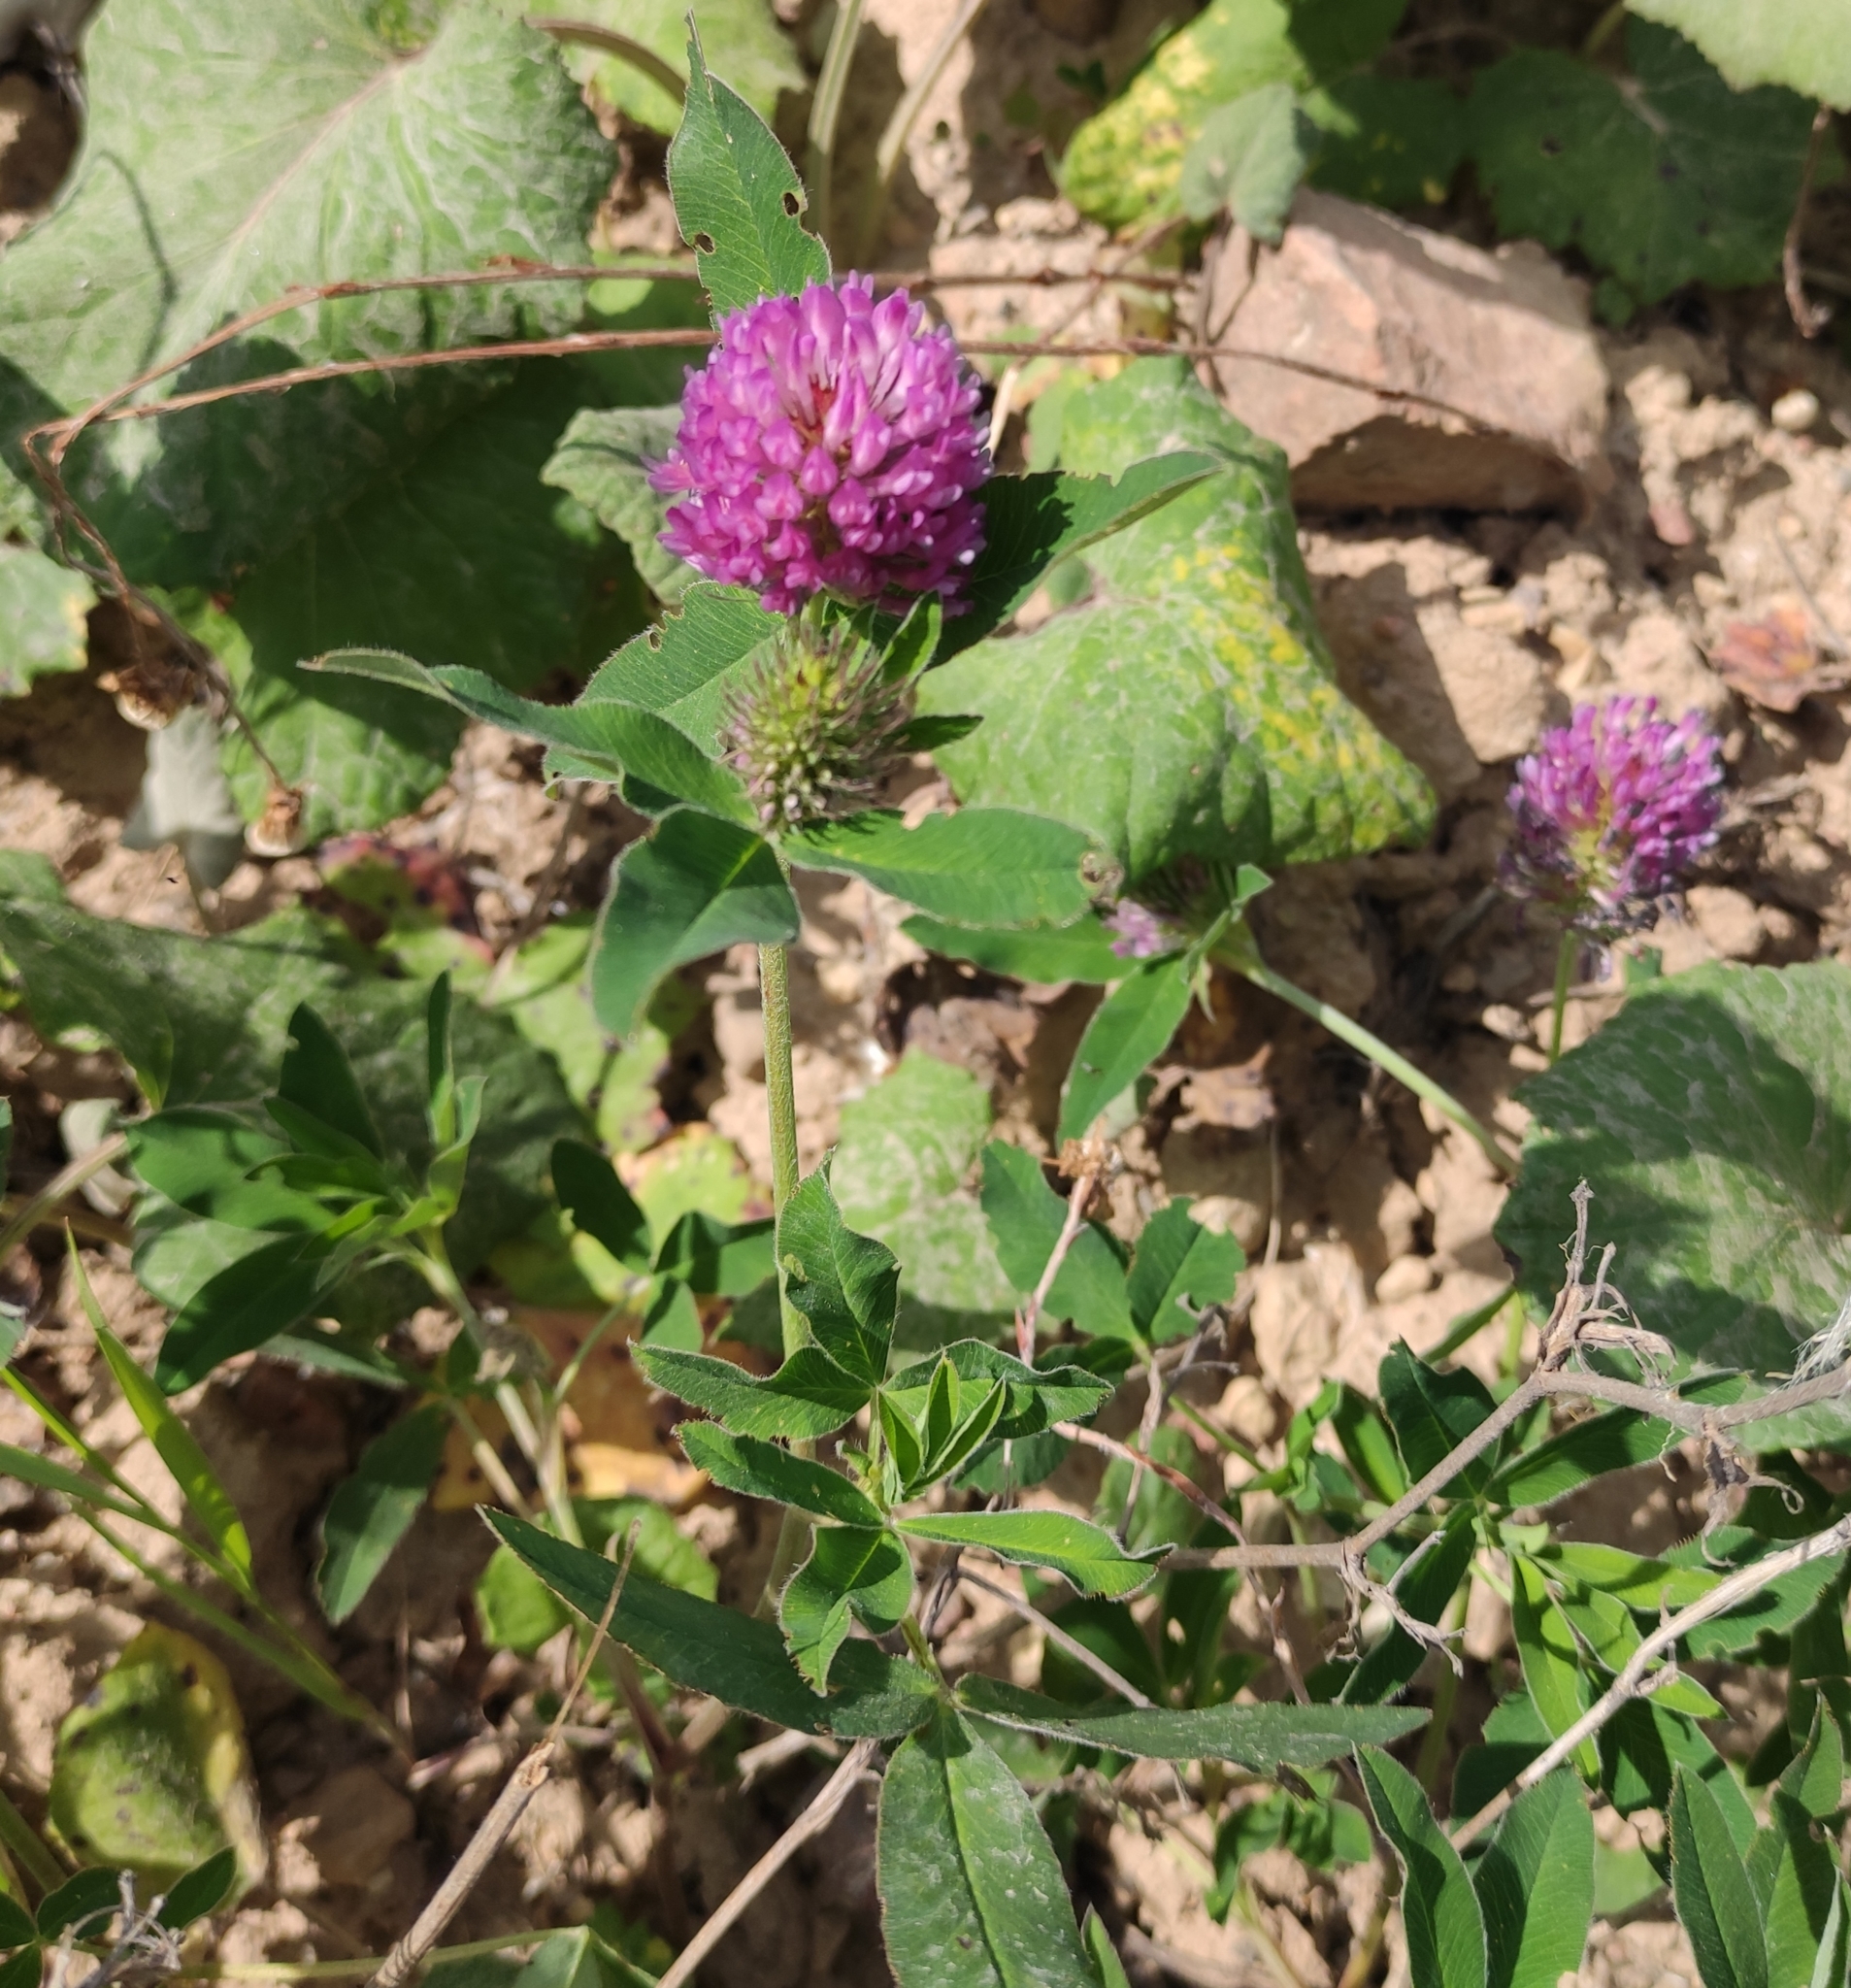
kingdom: Plantae
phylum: Tracheophyta
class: Magnoliopsida
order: Fabales
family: Fabaceae
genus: Trifolium
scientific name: Trifolium medium
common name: Zigzag clover
